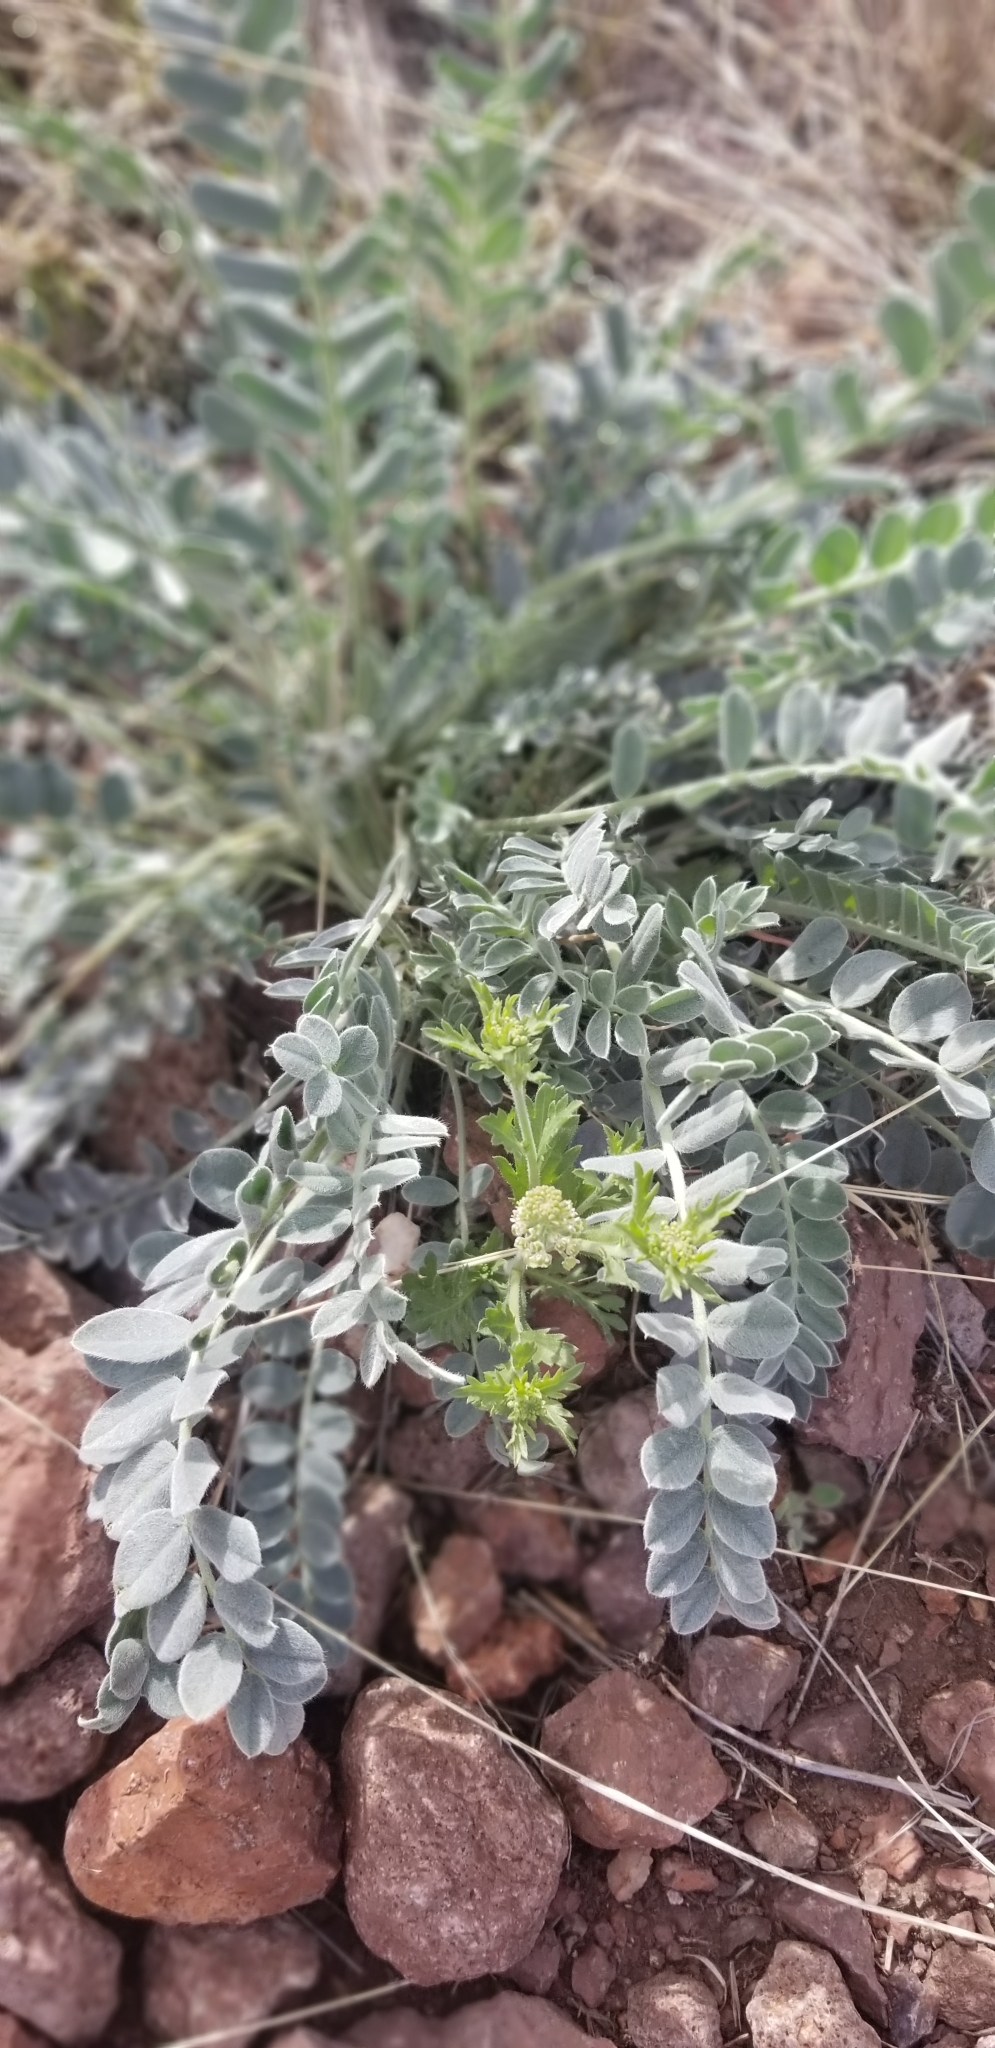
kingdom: Plantae
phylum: Tracheophyta
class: Magnoliopsida
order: Fabales
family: Fabaceae
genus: Astragalus
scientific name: Astragalus mollissimus
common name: Woolly locoweed
